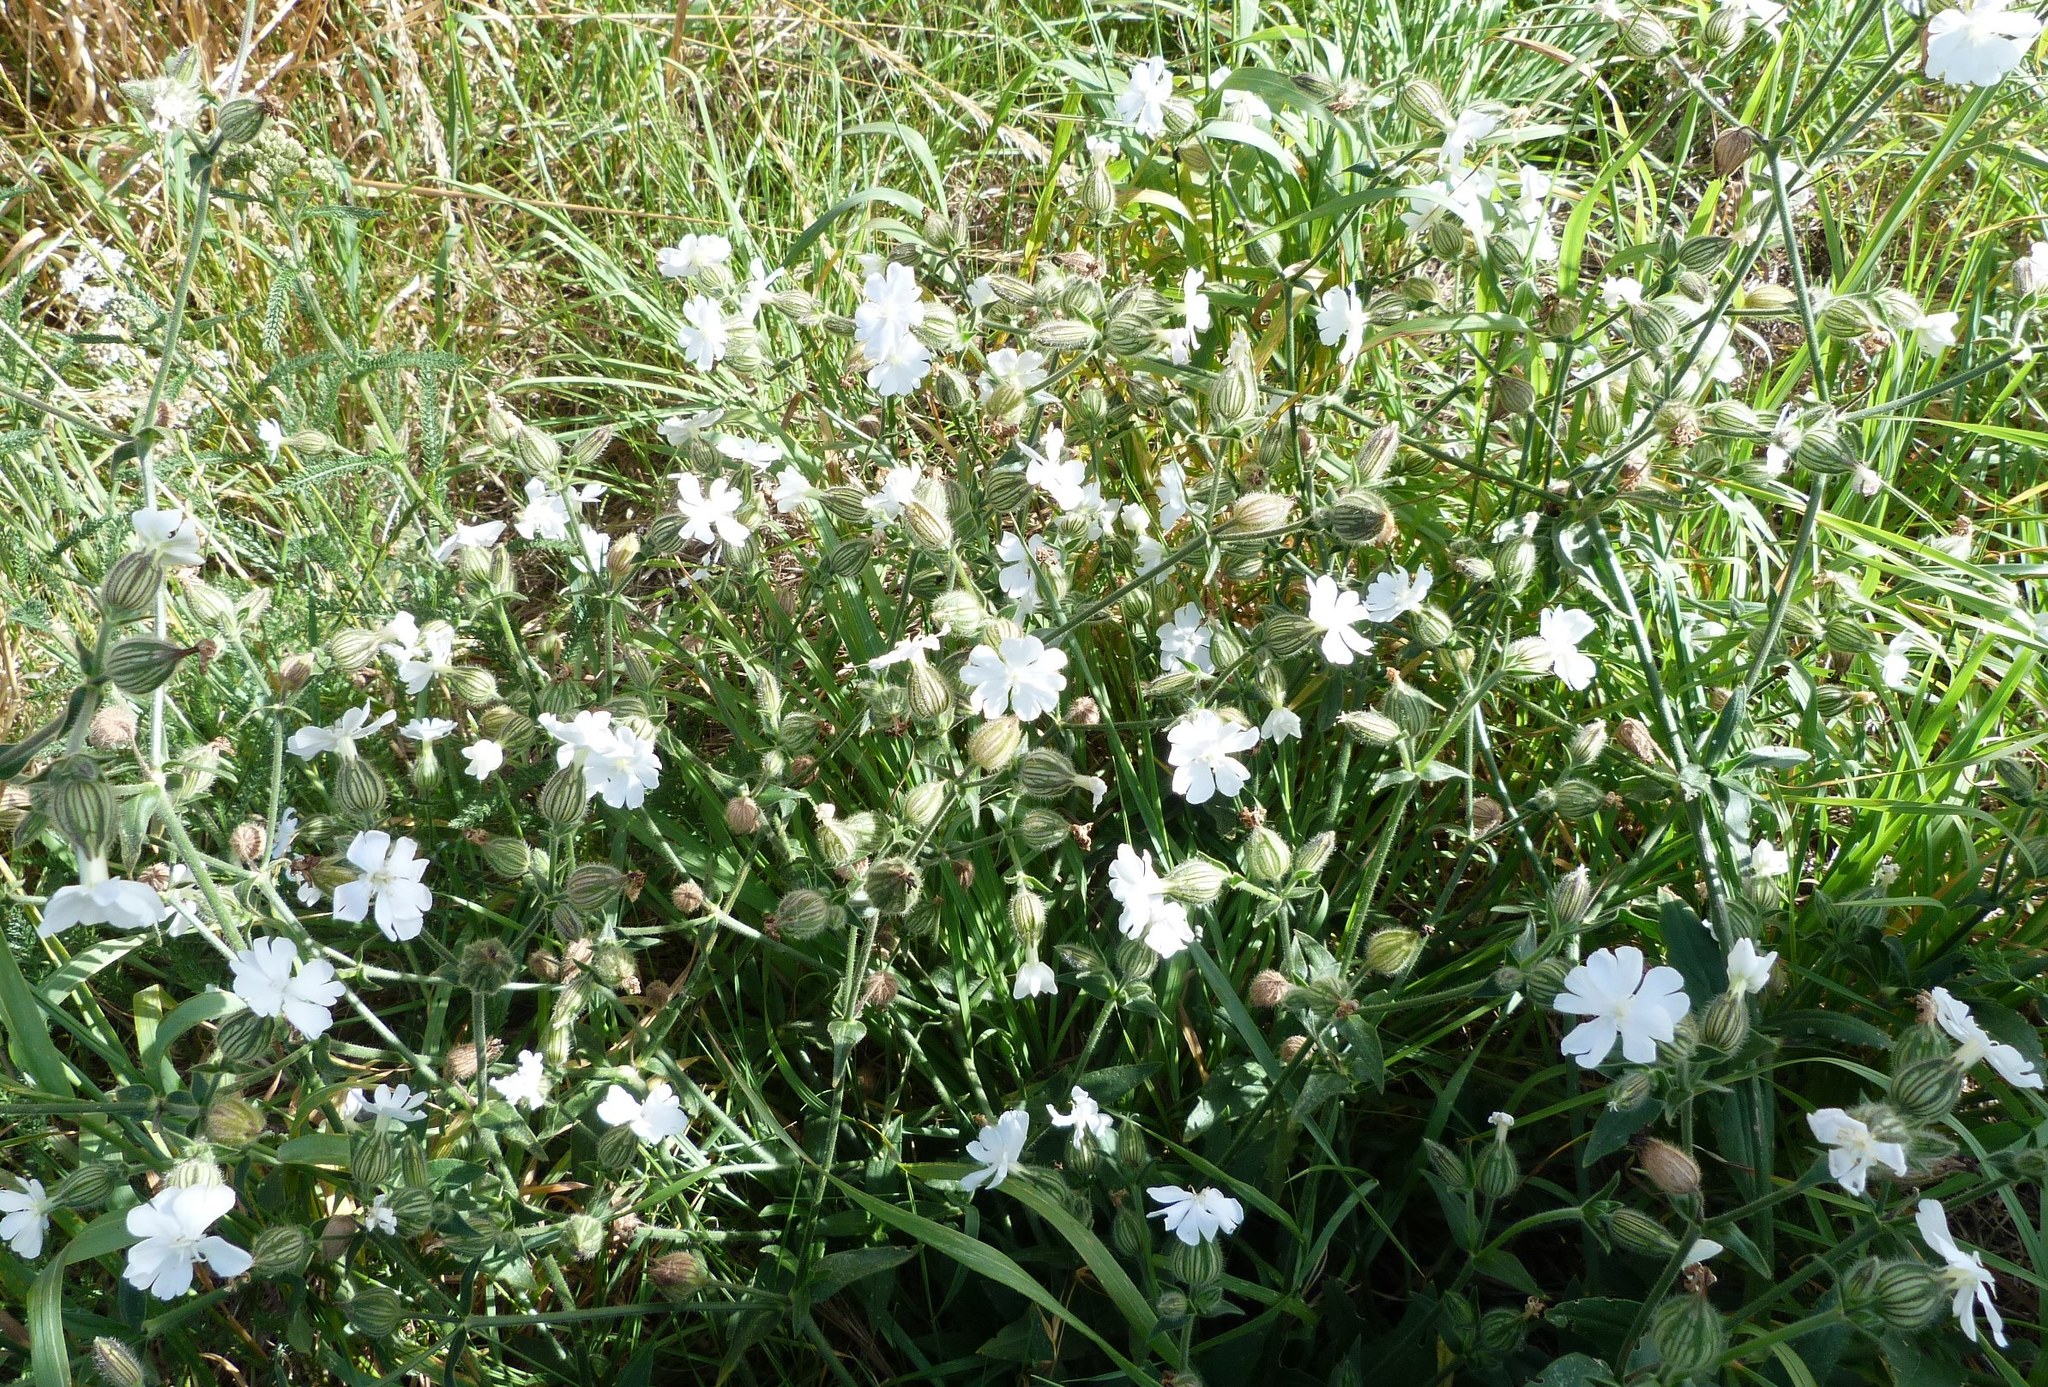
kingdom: Plantae
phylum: Tracheophyta
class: Magnoliopsida
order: Caryophyllales
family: Caryophyllaceae
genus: Silene
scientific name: Silene latifolia
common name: White campion
